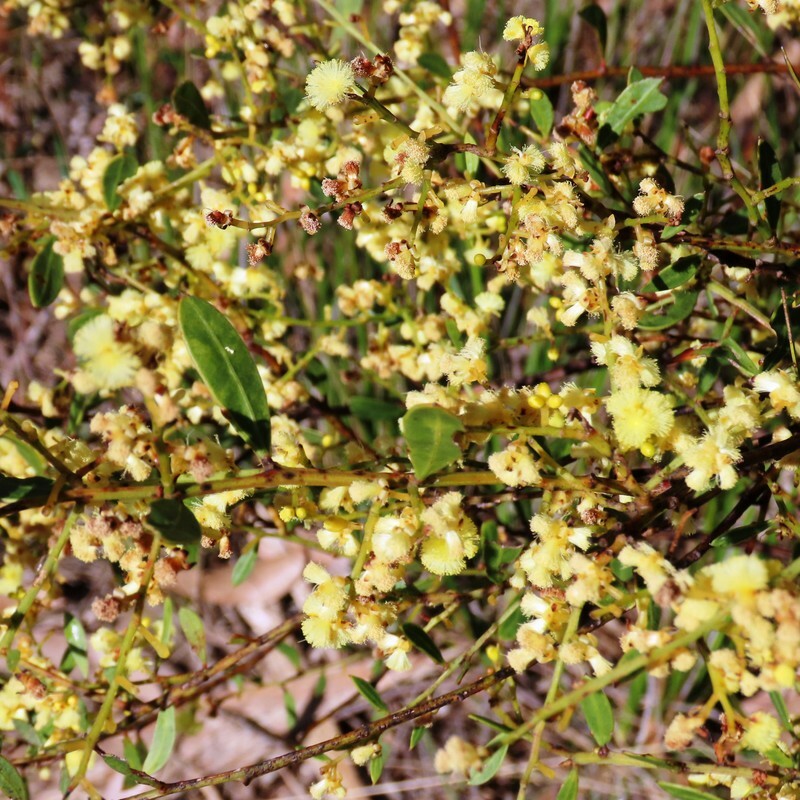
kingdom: Plantae
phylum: Tracheophyta
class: Magnoliopsida
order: Fabales
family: Fabaceae
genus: Acacia
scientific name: Acacia myrtifolia
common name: Myrtle wattle
